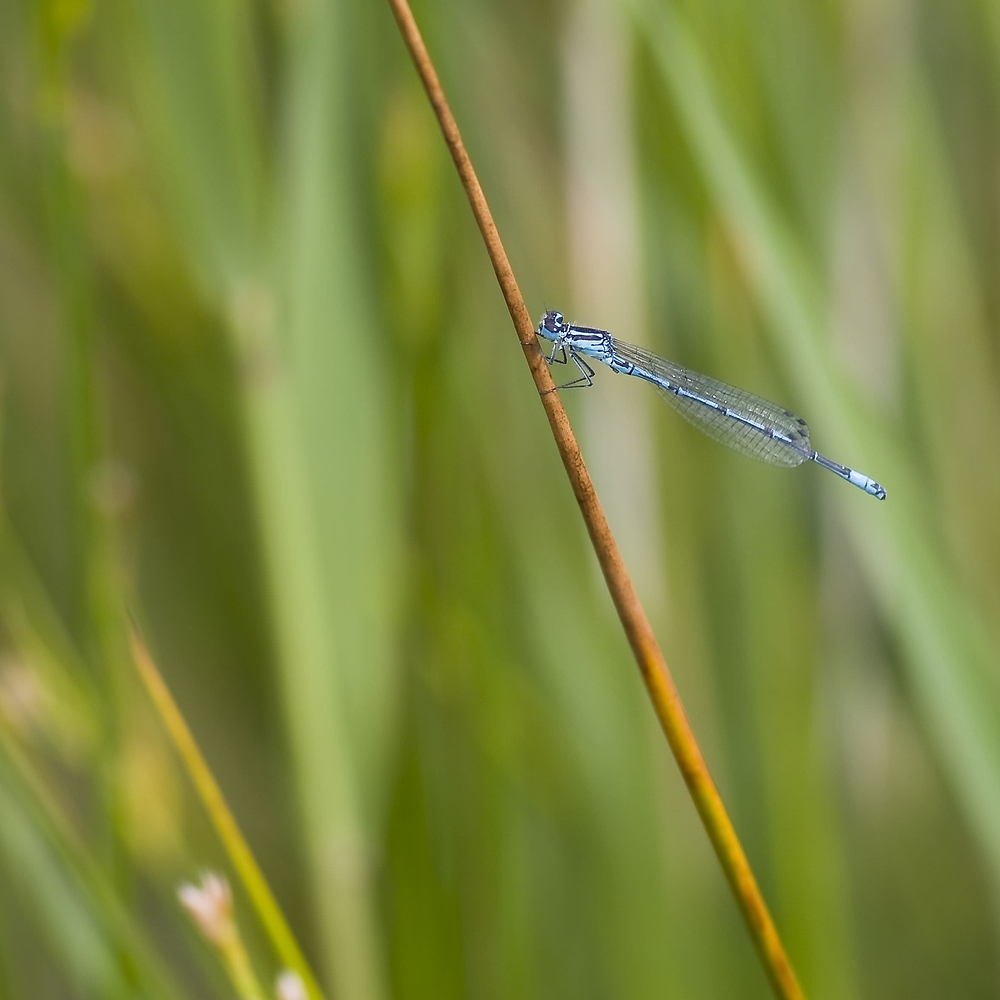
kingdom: Animalia
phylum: Arthropoda
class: Insecta
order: Odonata
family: Coenagrionidae
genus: Coenagrion
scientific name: Coenagrion puella
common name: Azure damselfly
